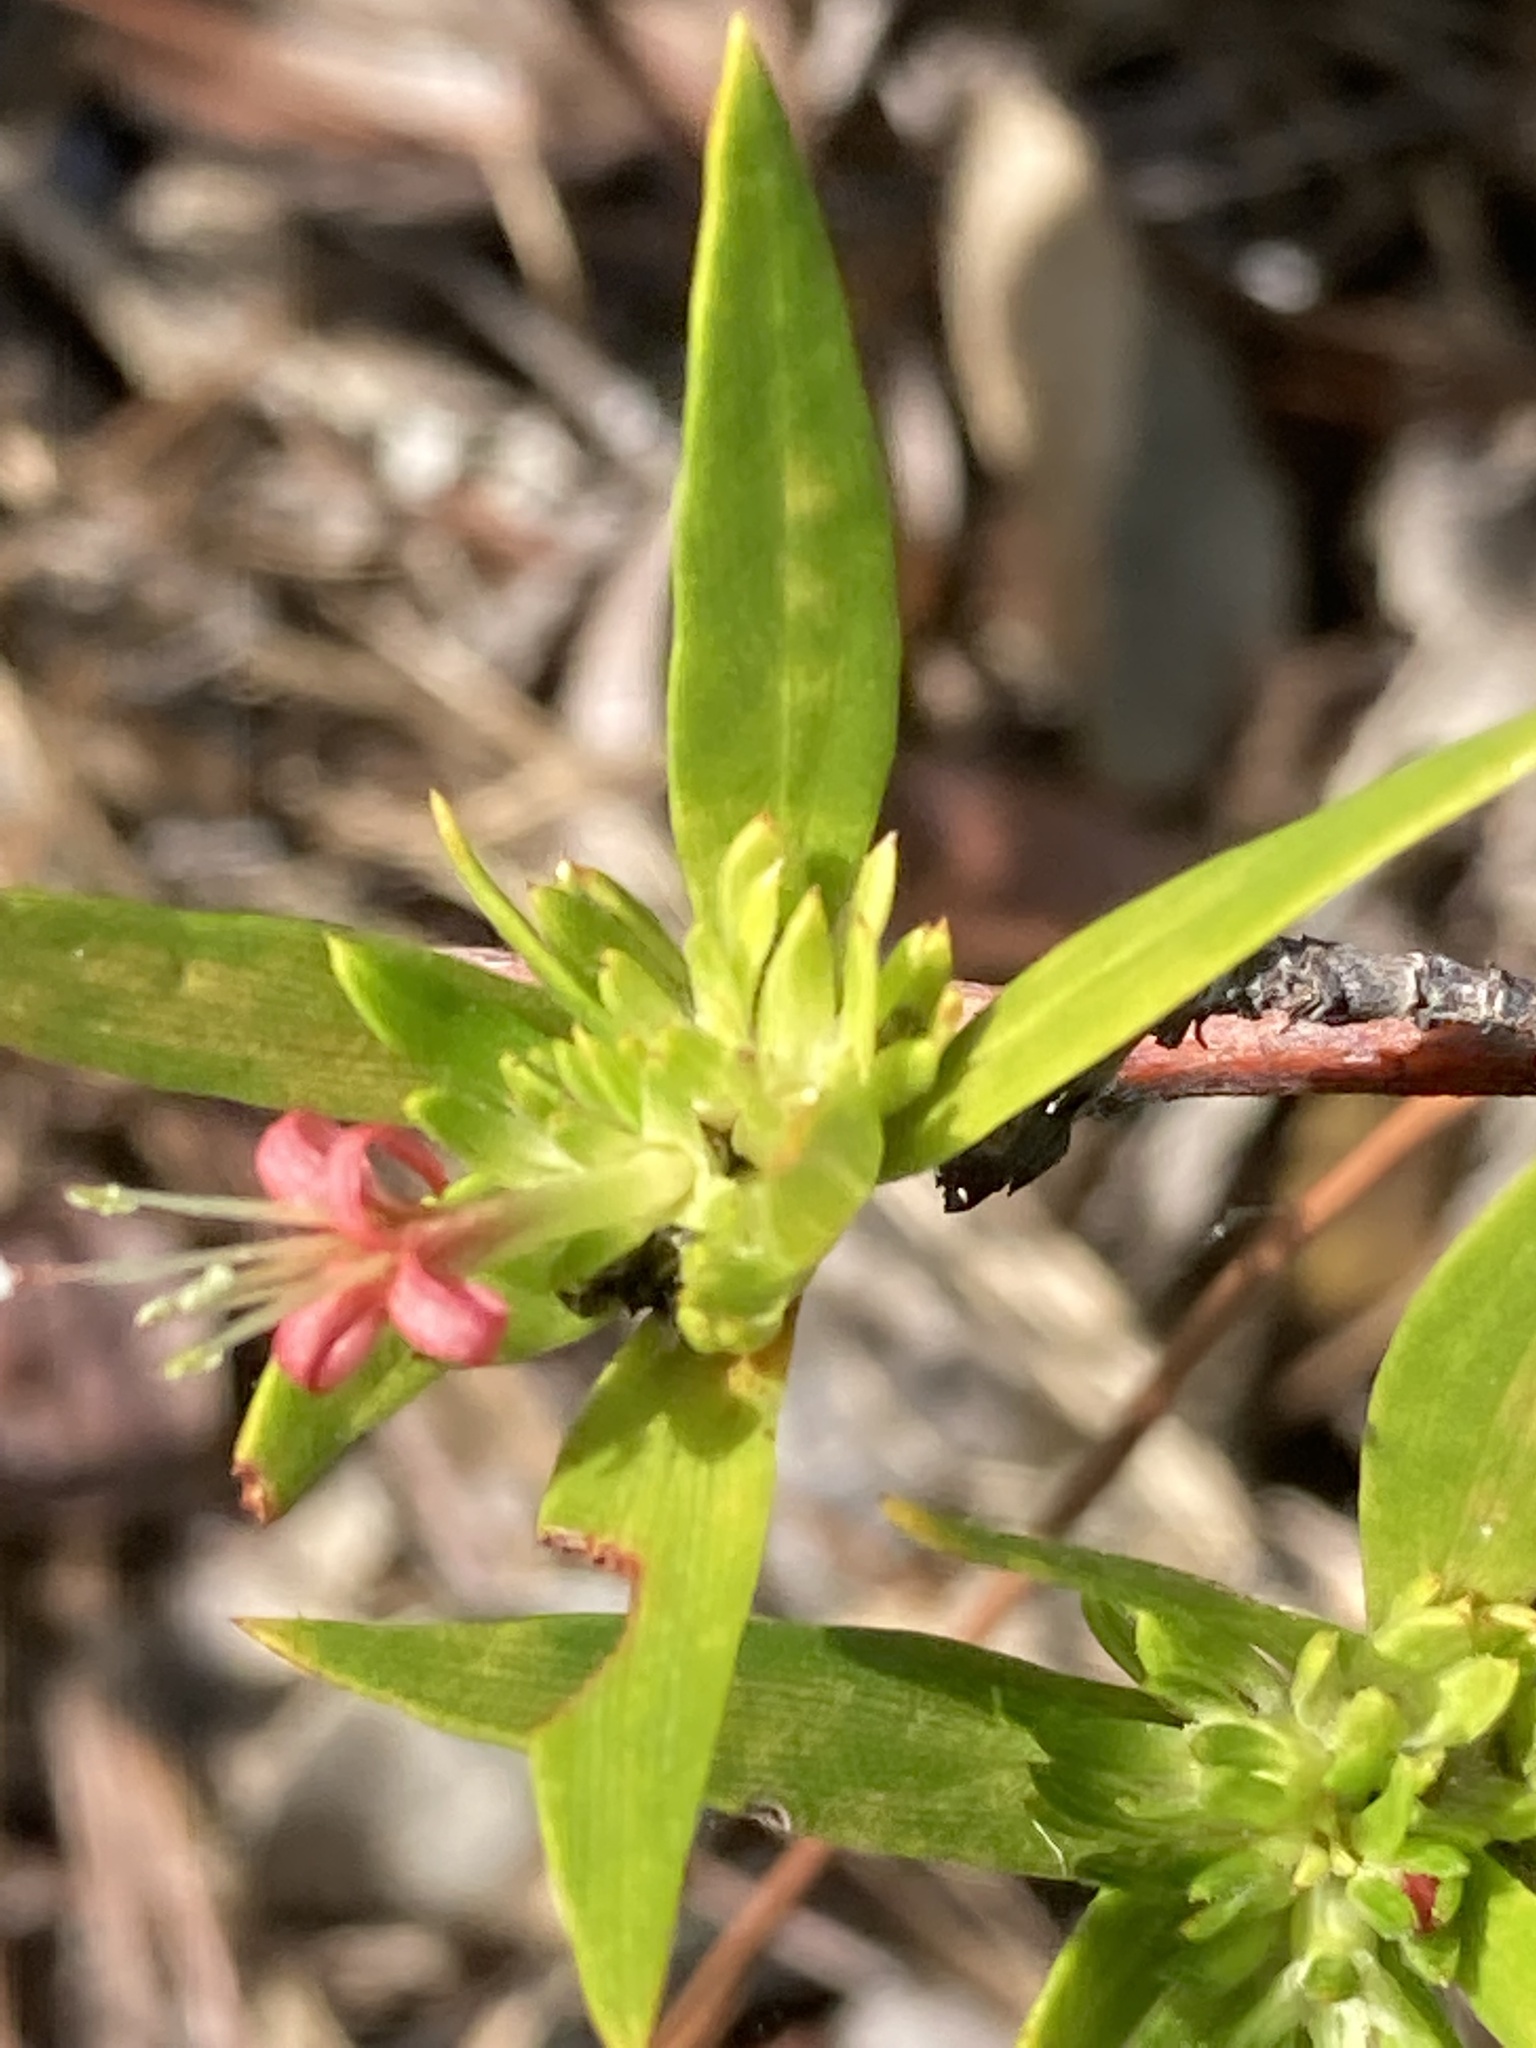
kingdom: Plantae
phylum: Tracheophyta
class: Magnoliopsida
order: Gentianales
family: Rubiaceae
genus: Ernodea
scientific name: Ernodea littoralis
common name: Beach creeper
